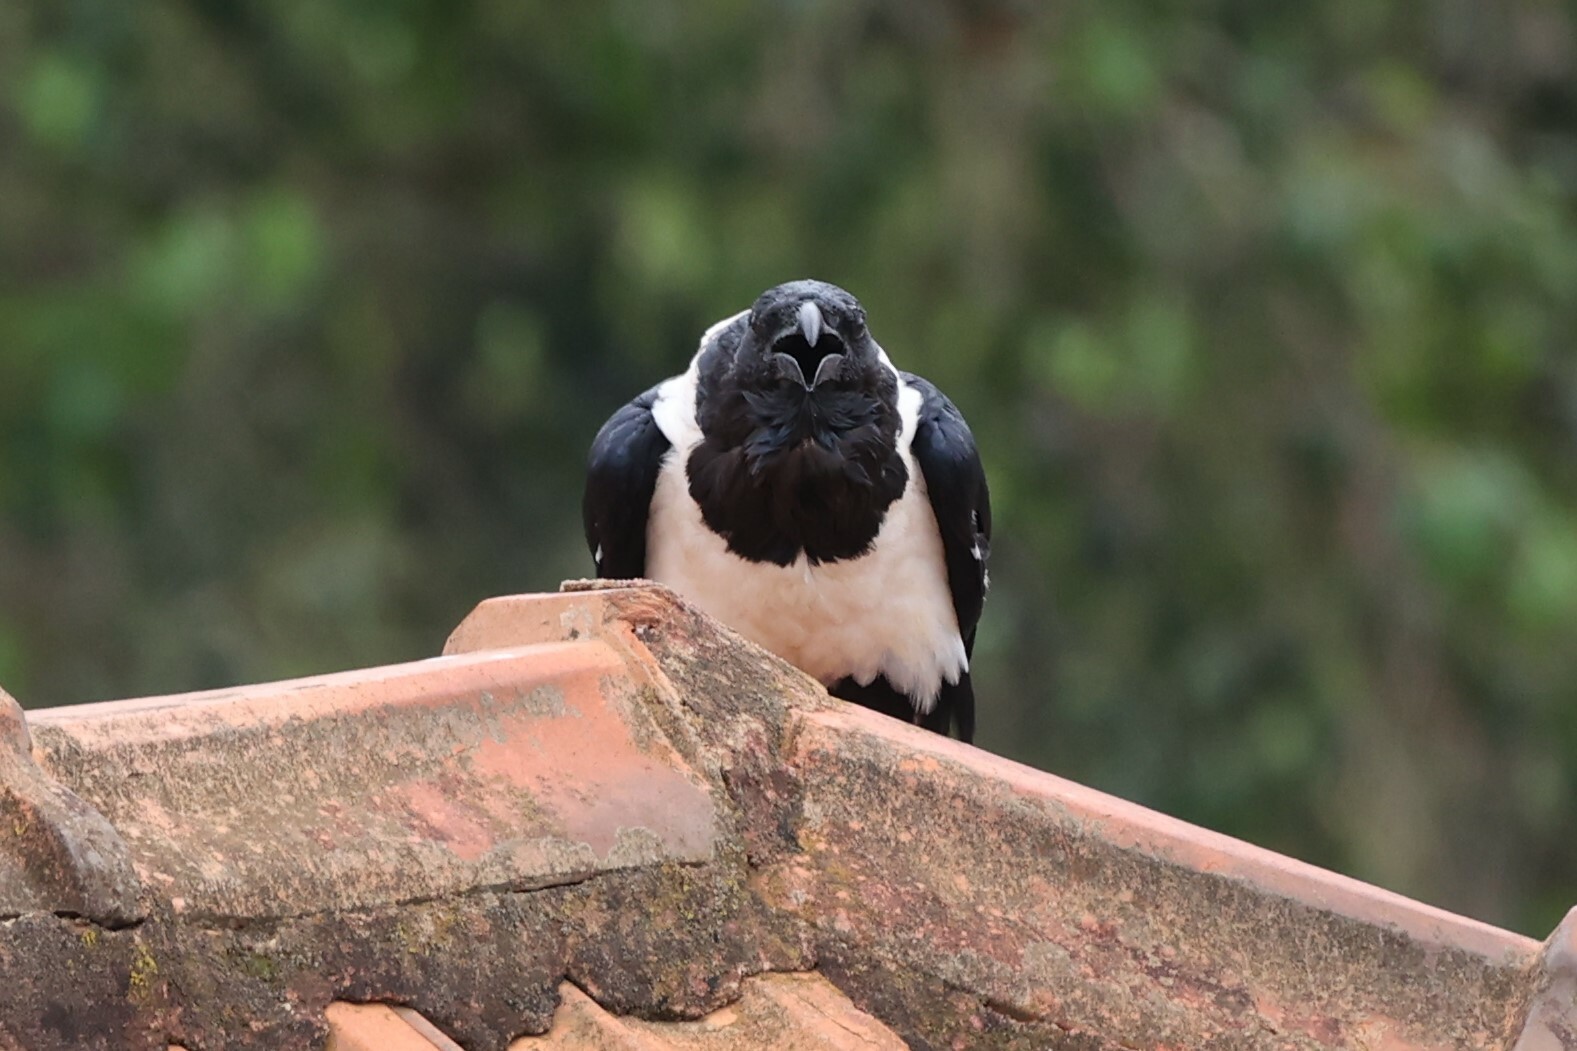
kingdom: Animalia
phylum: Chordata
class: Aves
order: Passeriformes
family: Corvidae
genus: Corvus
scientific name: Corvus albus
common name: Pied crow
